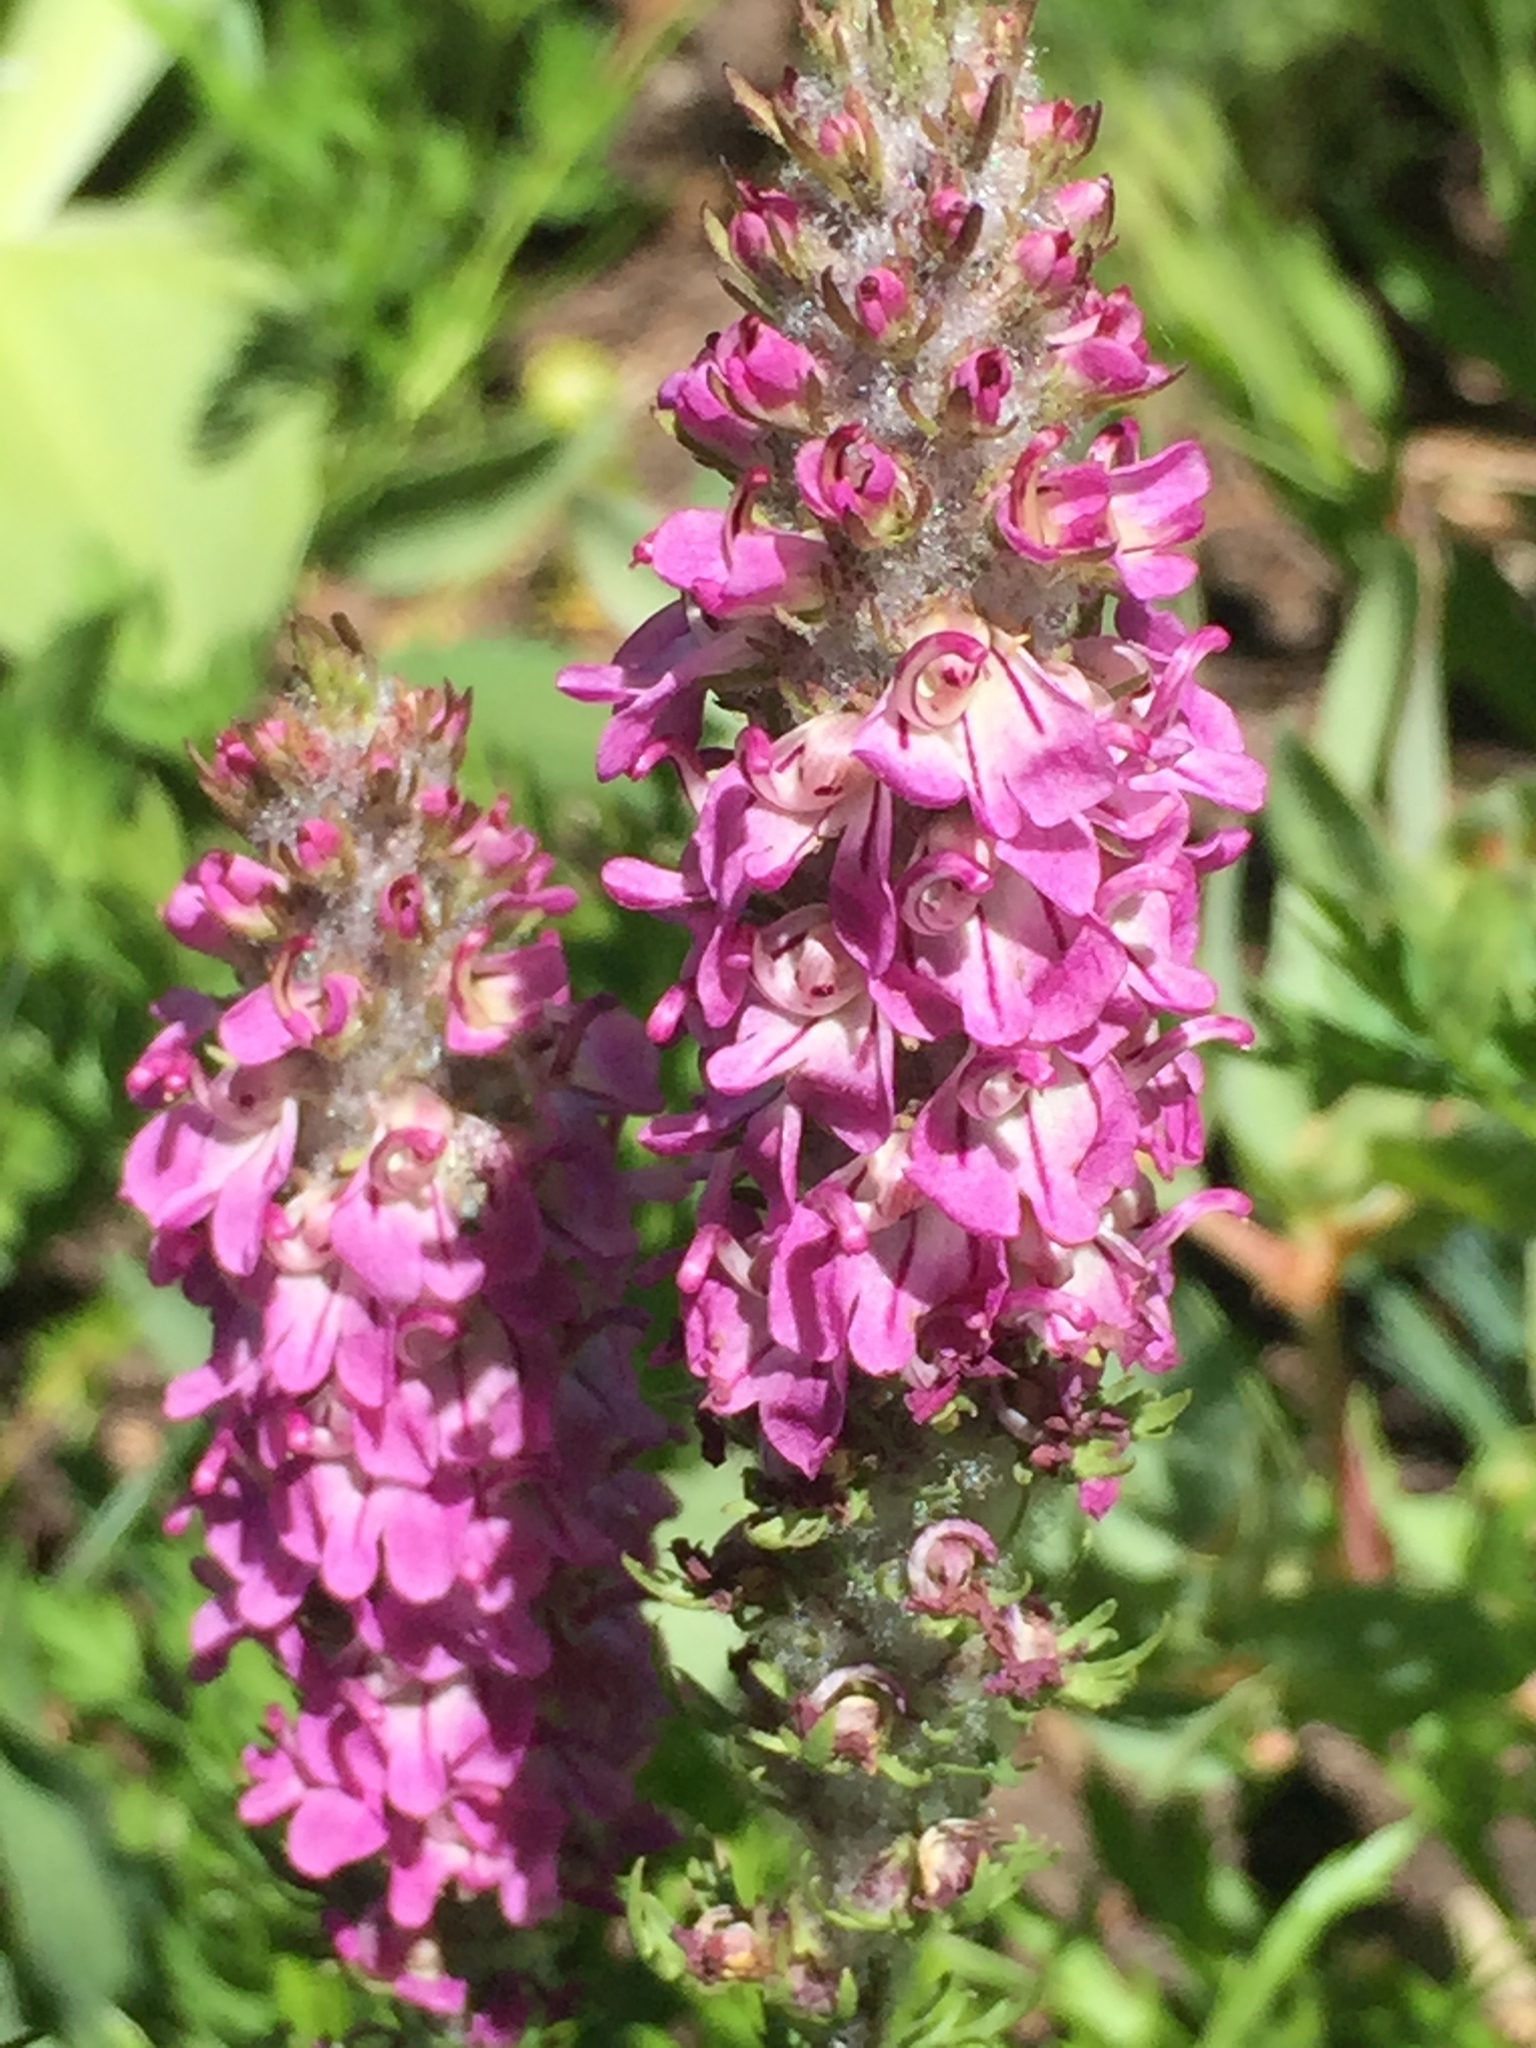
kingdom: Plantae
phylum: Tracheophyta
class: Magnoliopsida
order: Lamiales
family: Orobanchaceae
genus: Pedicularis
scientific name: Pedicularis attollens
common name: Slender pedicularis
